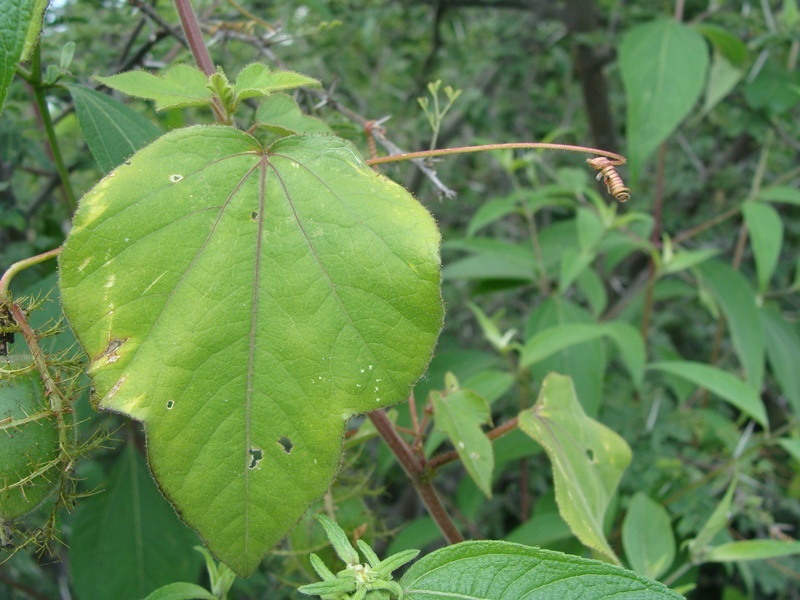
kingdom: Plantae
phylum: Tracheophyta
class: Magnoliopsida
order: Malpighiales
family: Passifloraceae
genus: Passiflora
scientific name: Passiflora foetida
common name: Fetid passionflower
